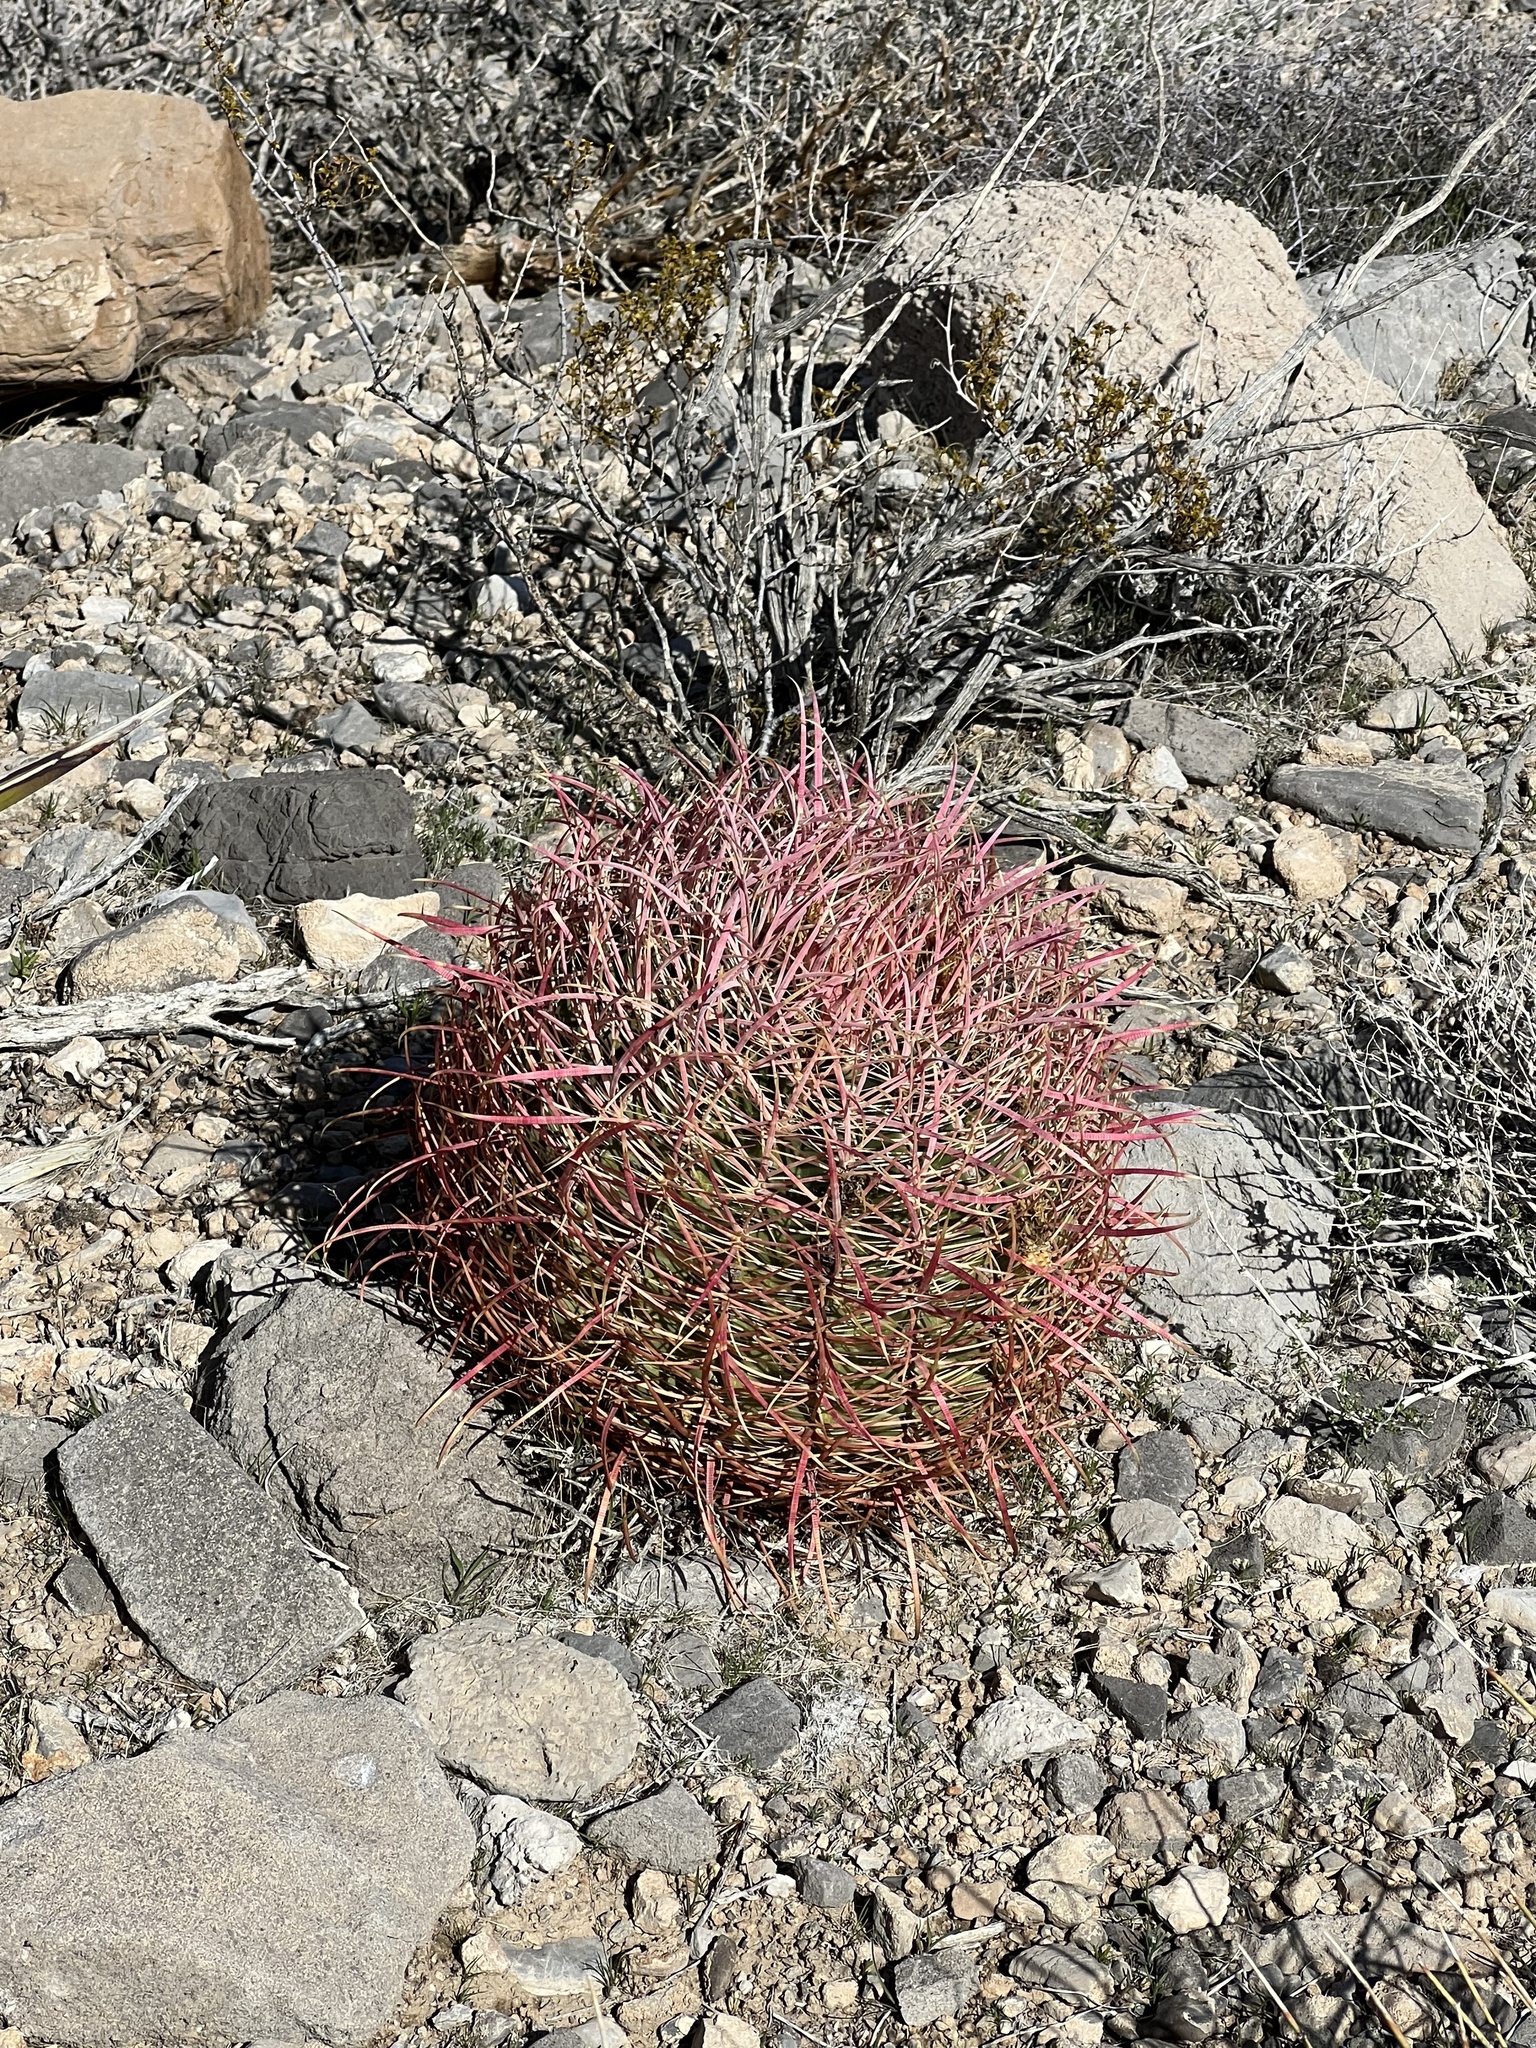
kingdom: Plantae
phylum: Tracheophyta
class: Magnoliopsida
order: Caryophyllales
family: Cactaceae
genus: Ferocactus
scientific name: Ferocactus cylindraceus
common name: California barrel cactus
